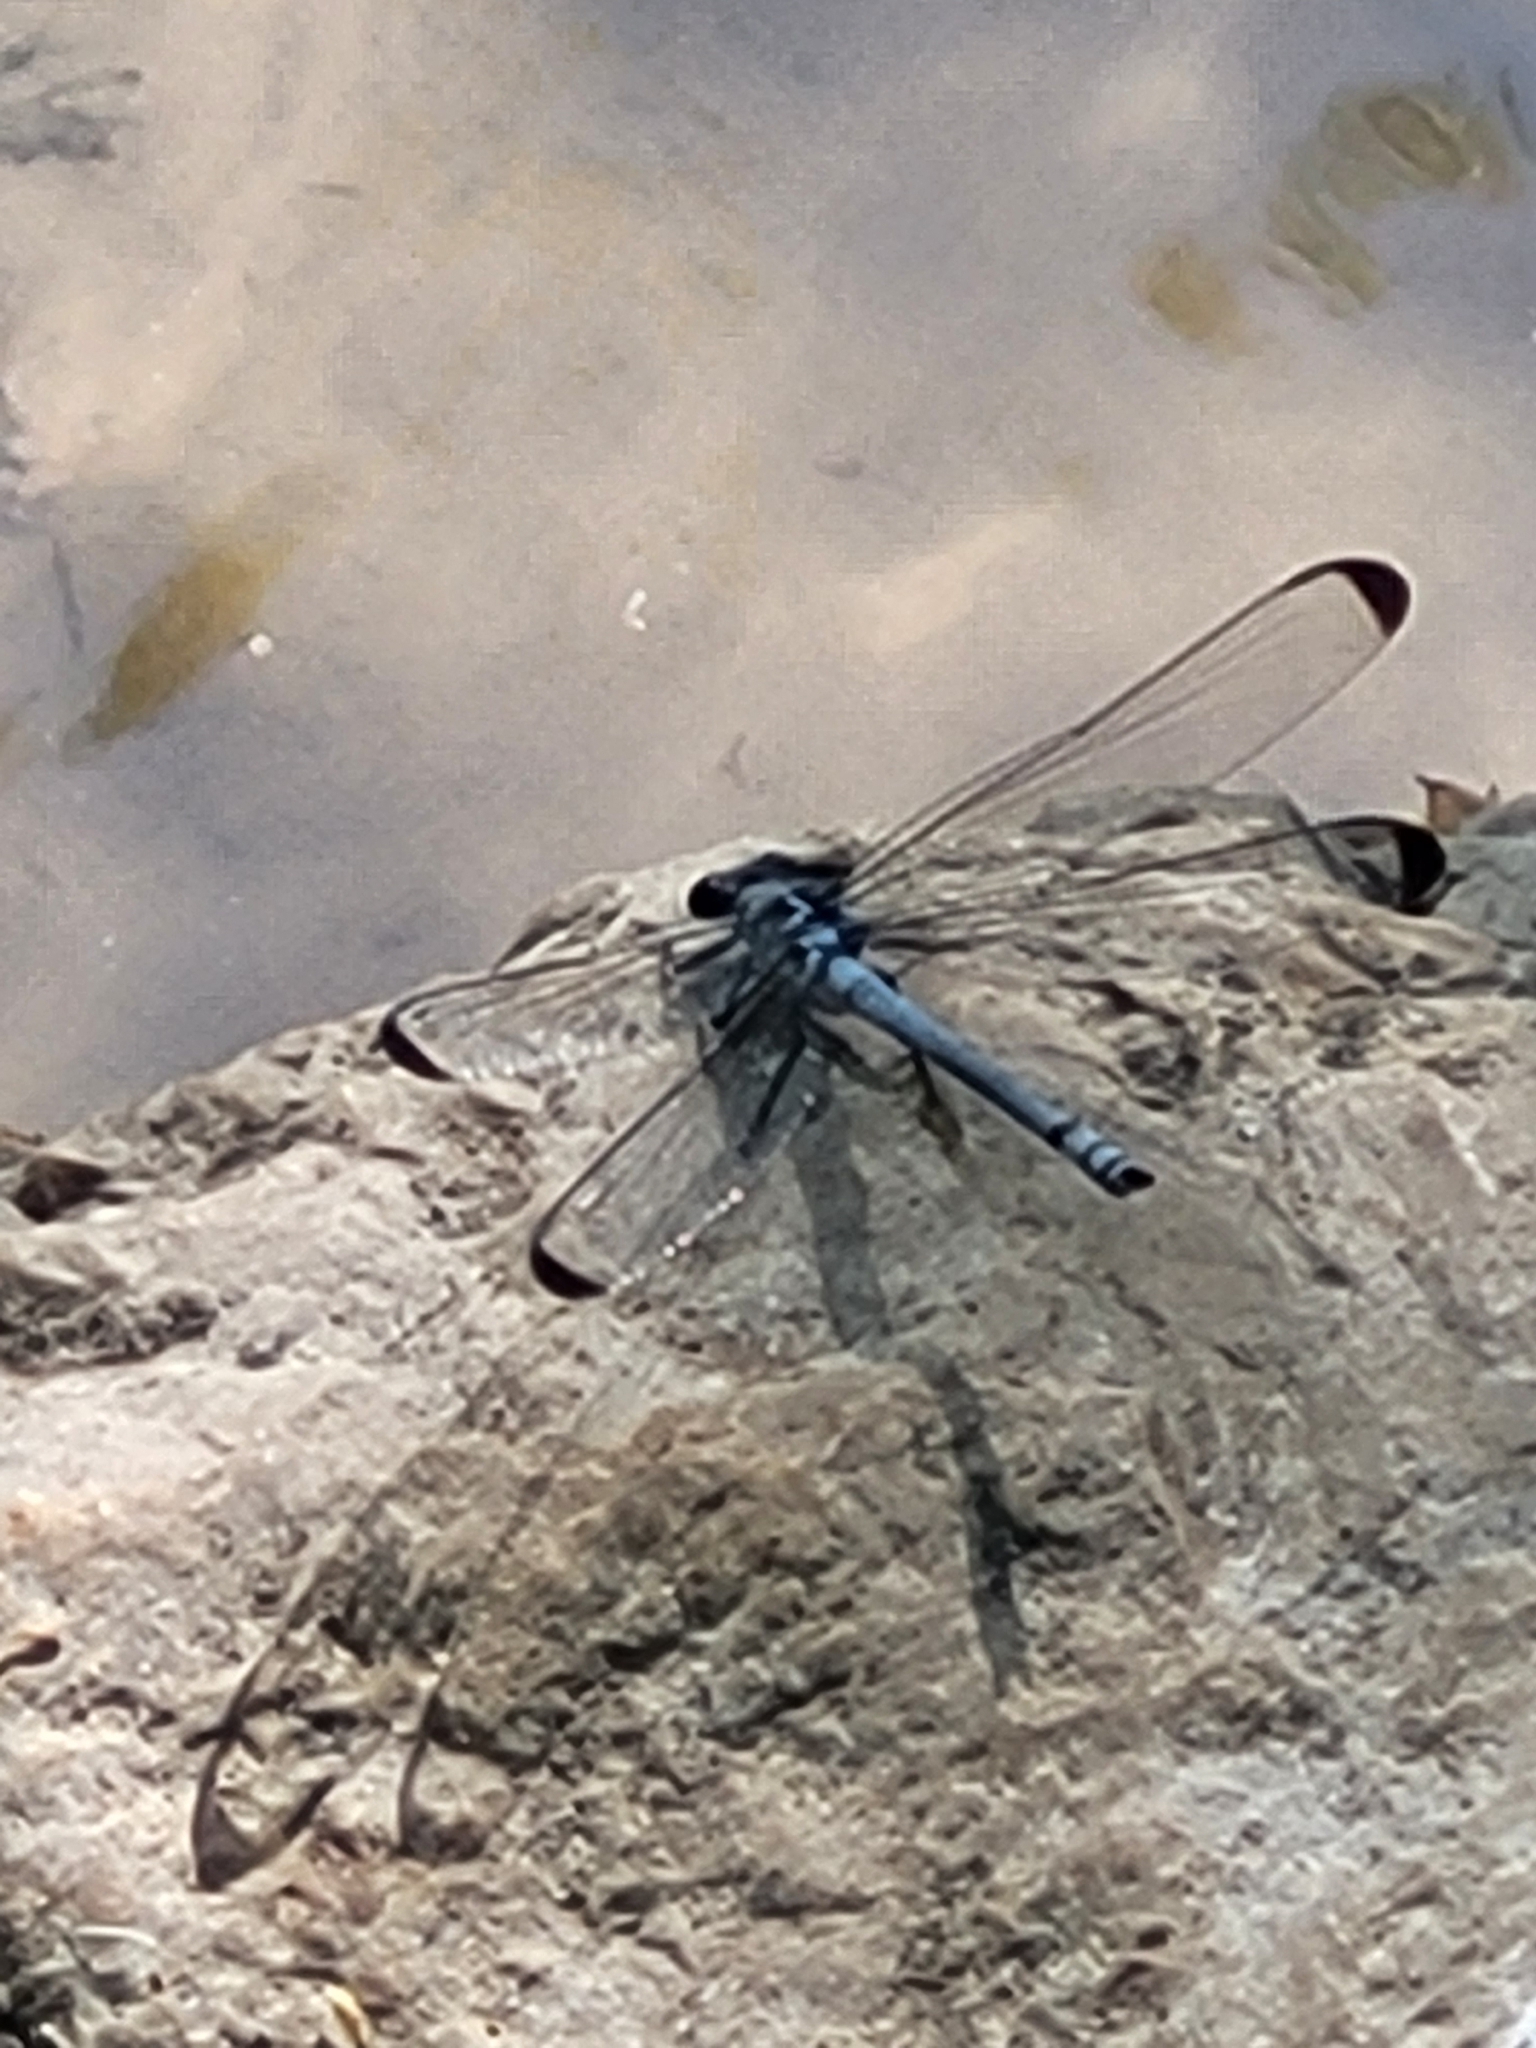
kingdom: Animalia
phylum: Arthropoda
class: Insecta
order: Odonata
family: Euphaeidae
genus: Epallage
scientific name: Epallage fatime
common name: Odalisque
